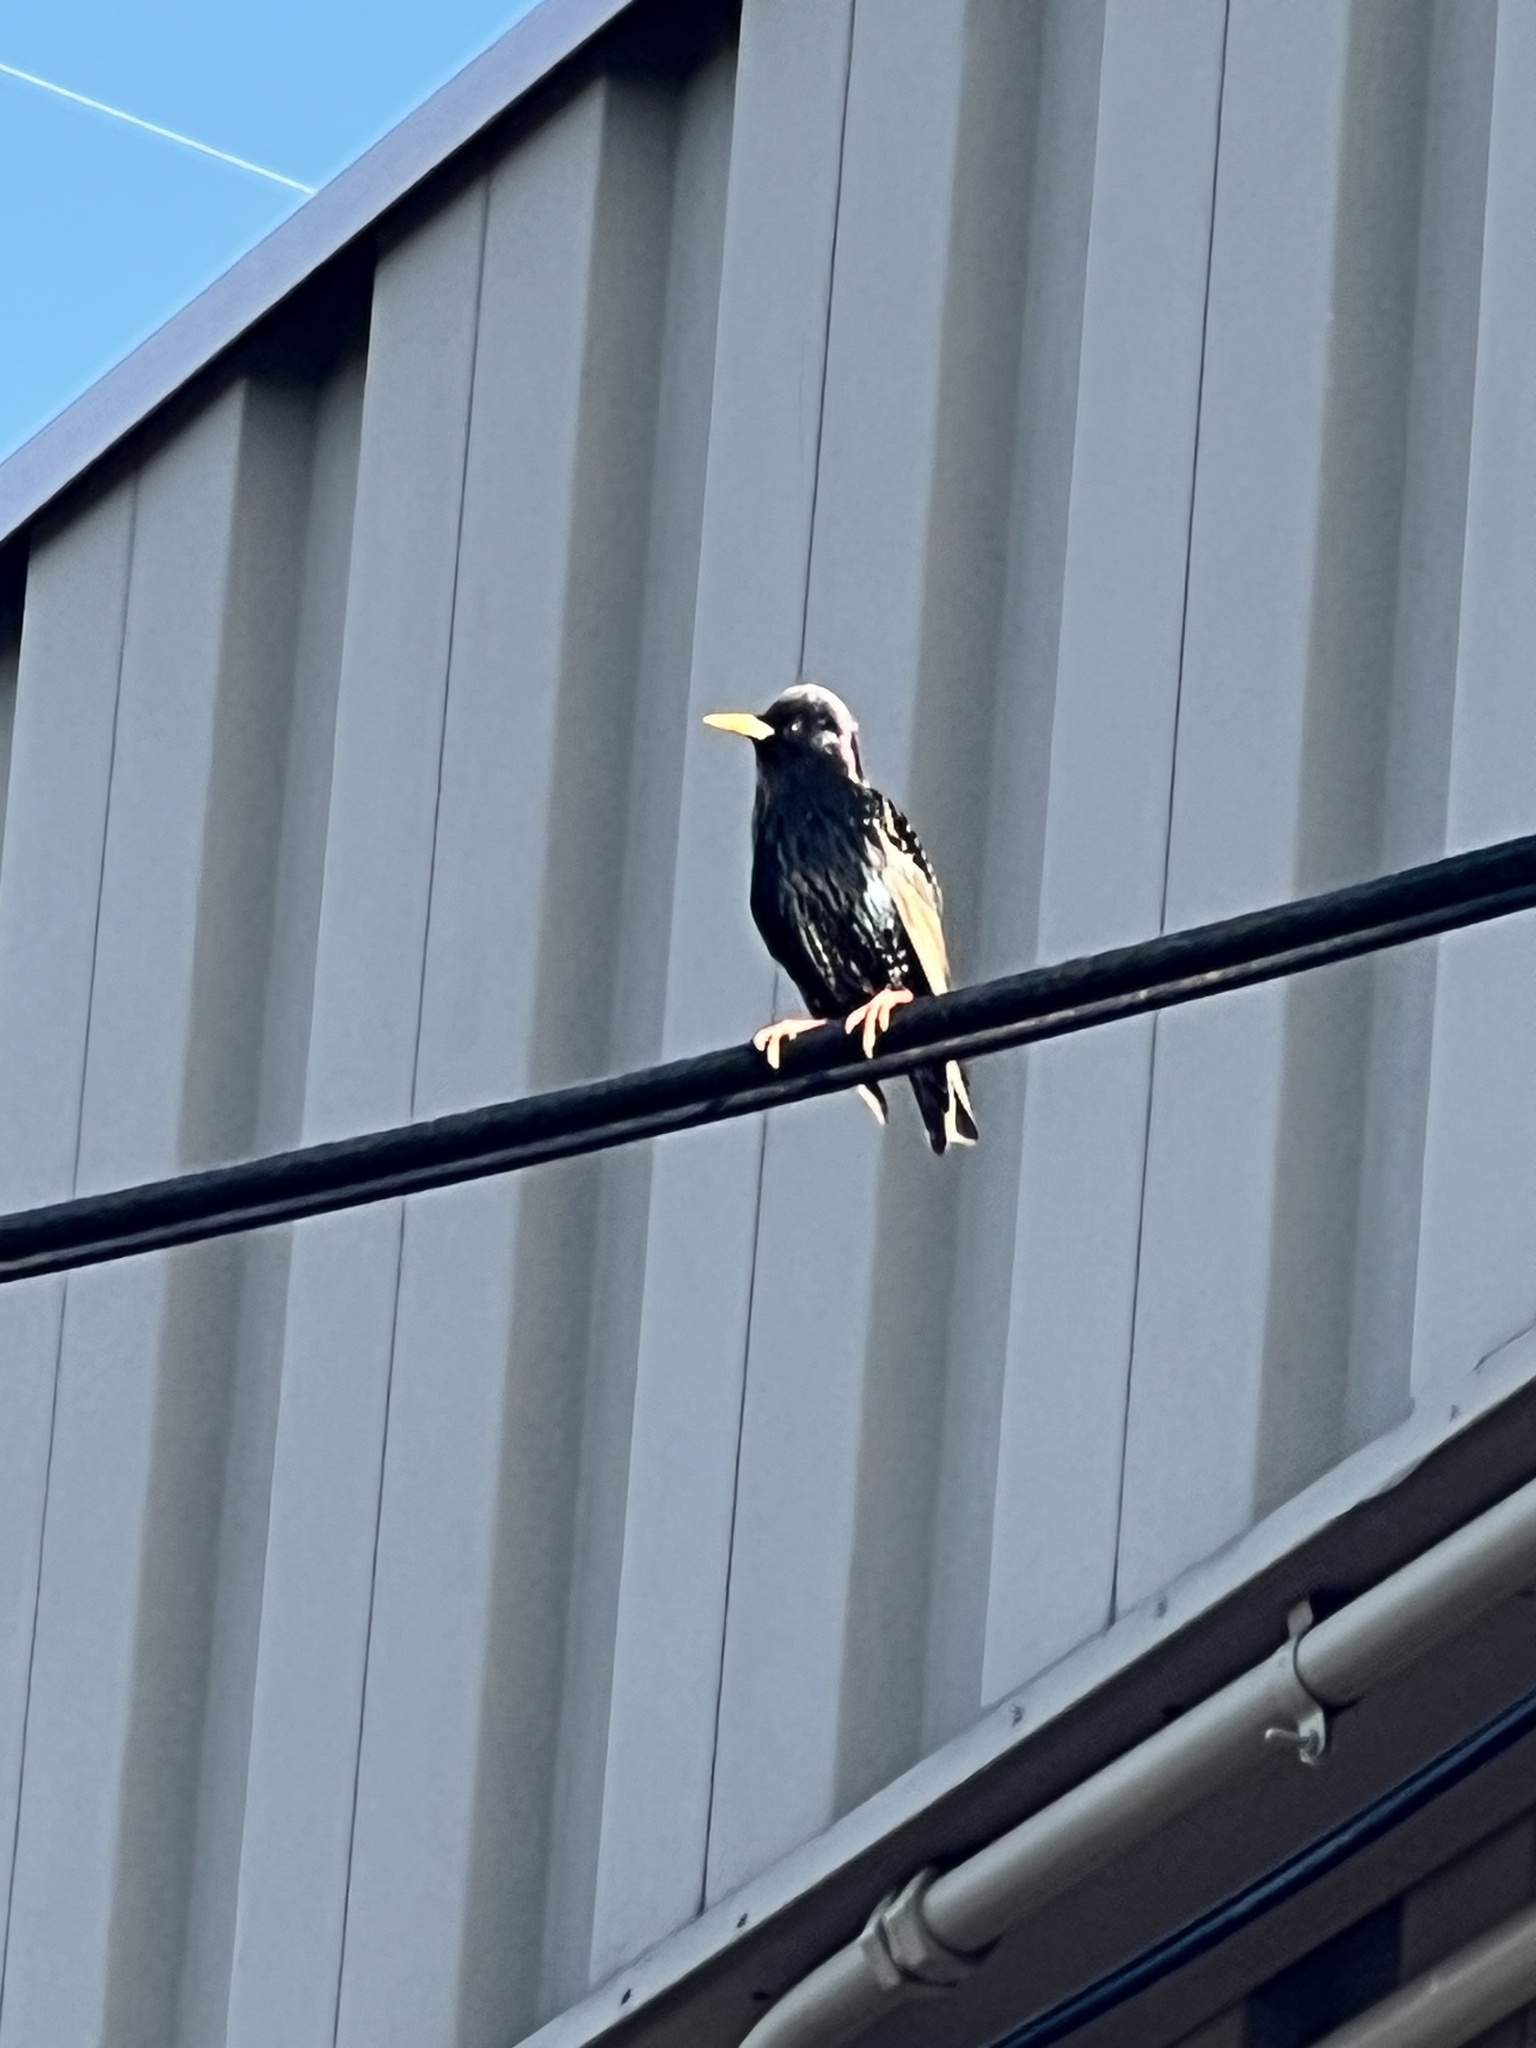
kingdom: Animalia
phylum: Chordata
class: Aves
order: Passeriformes
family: Sturnidae
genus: Sturnus
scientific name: Sturnus vulgaris
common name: Common starling
